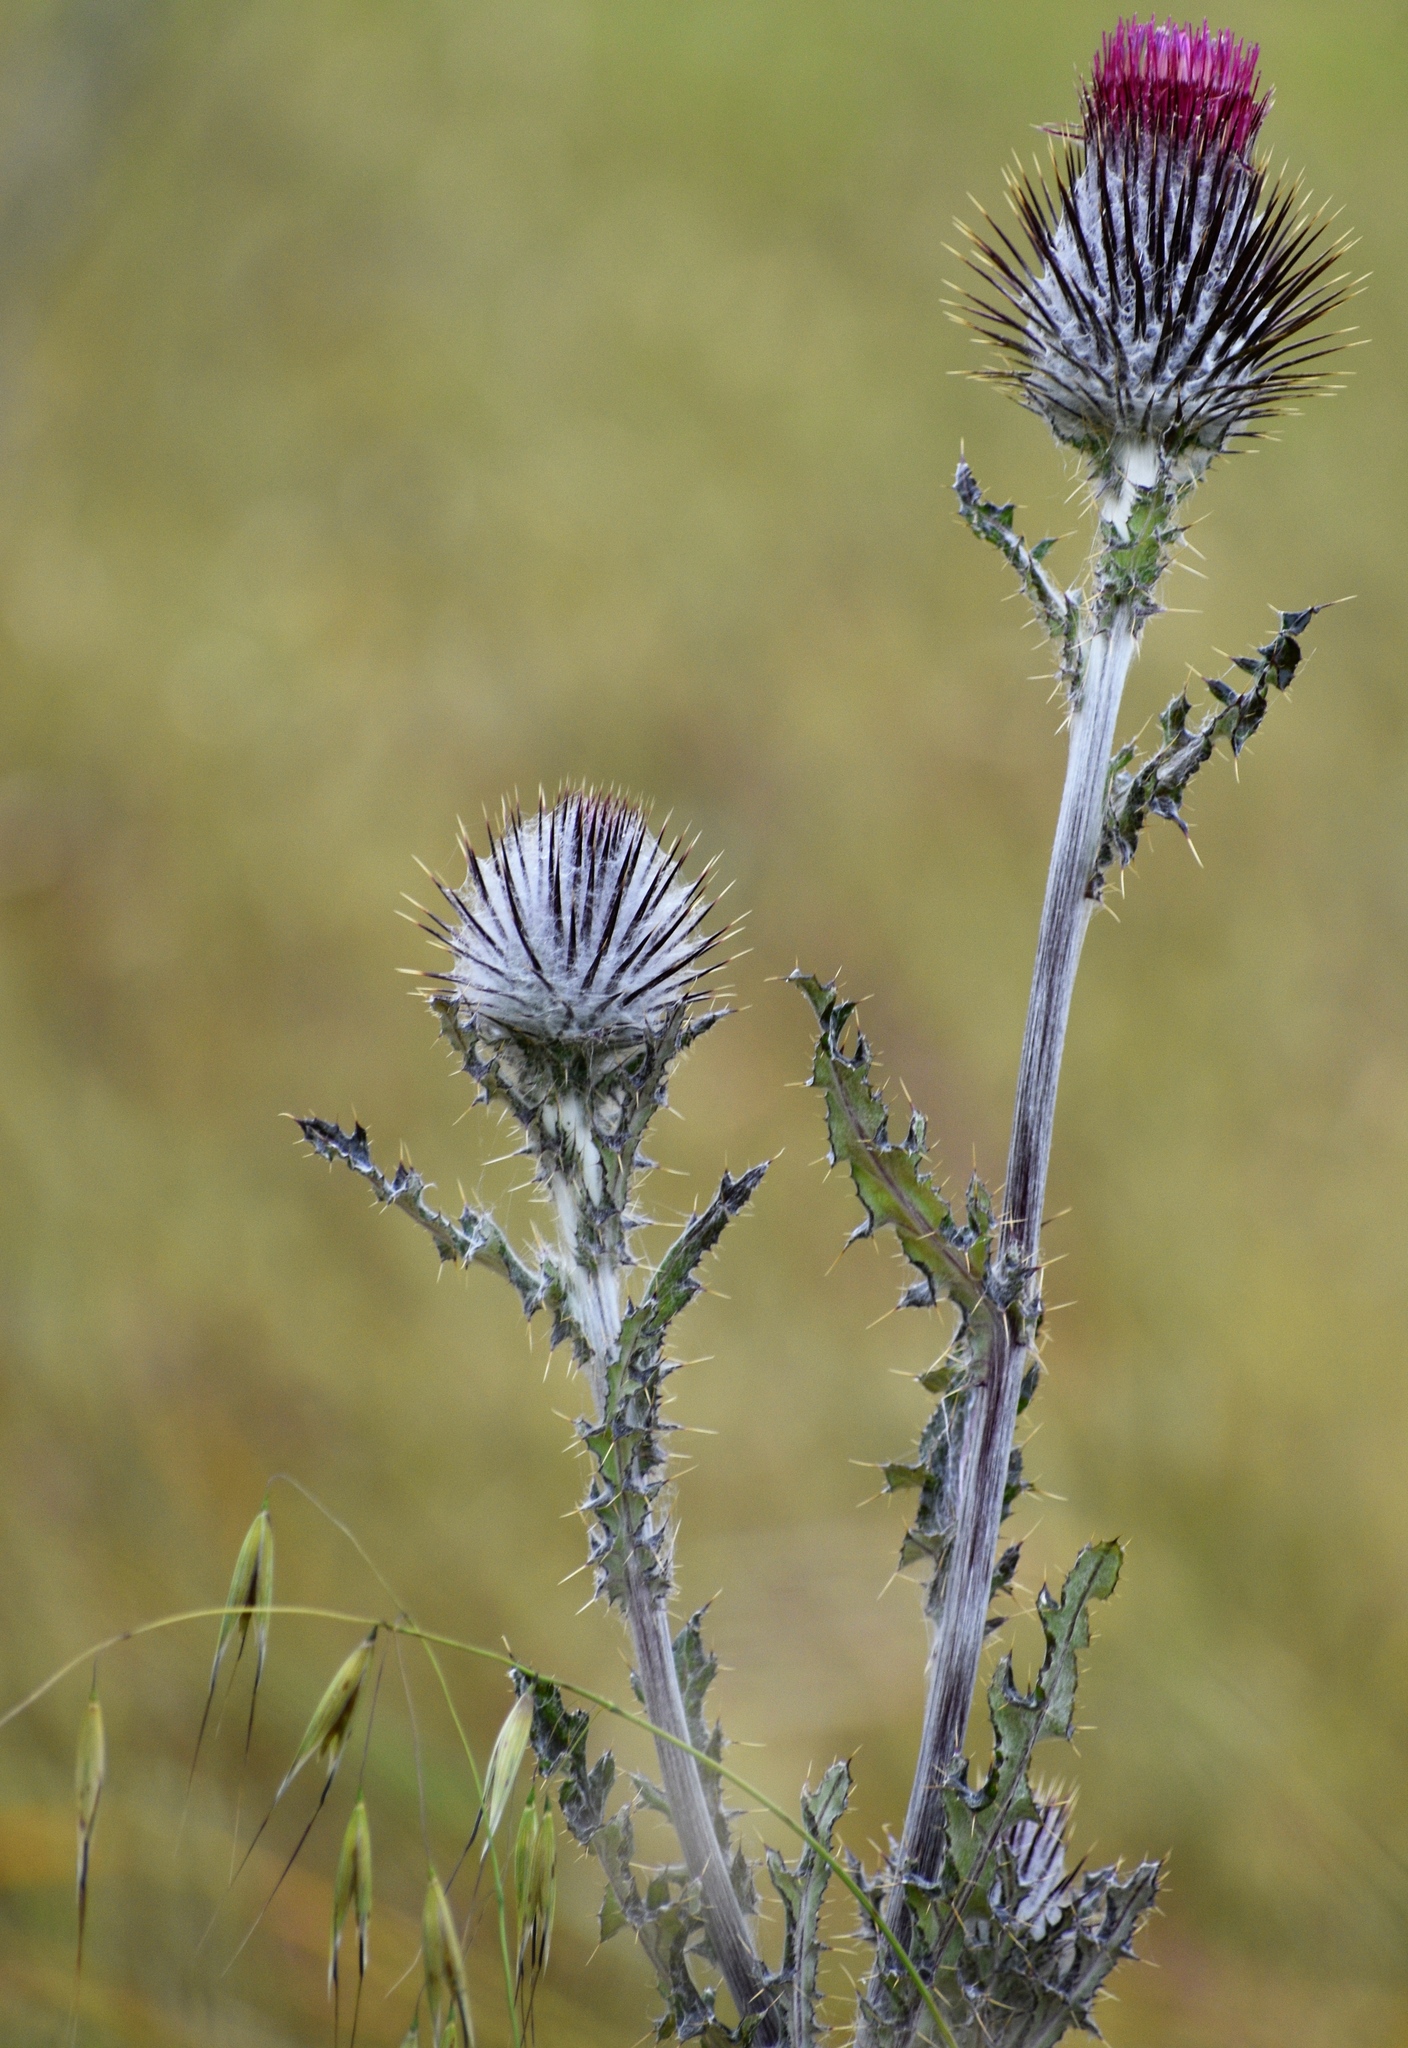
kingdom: Plantae
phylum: Tracheophyta
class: Magnoliopsida
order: Asterales
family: Asteraceae
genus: Cirsium
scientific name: Cirsium occidentale
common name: Western thistle
